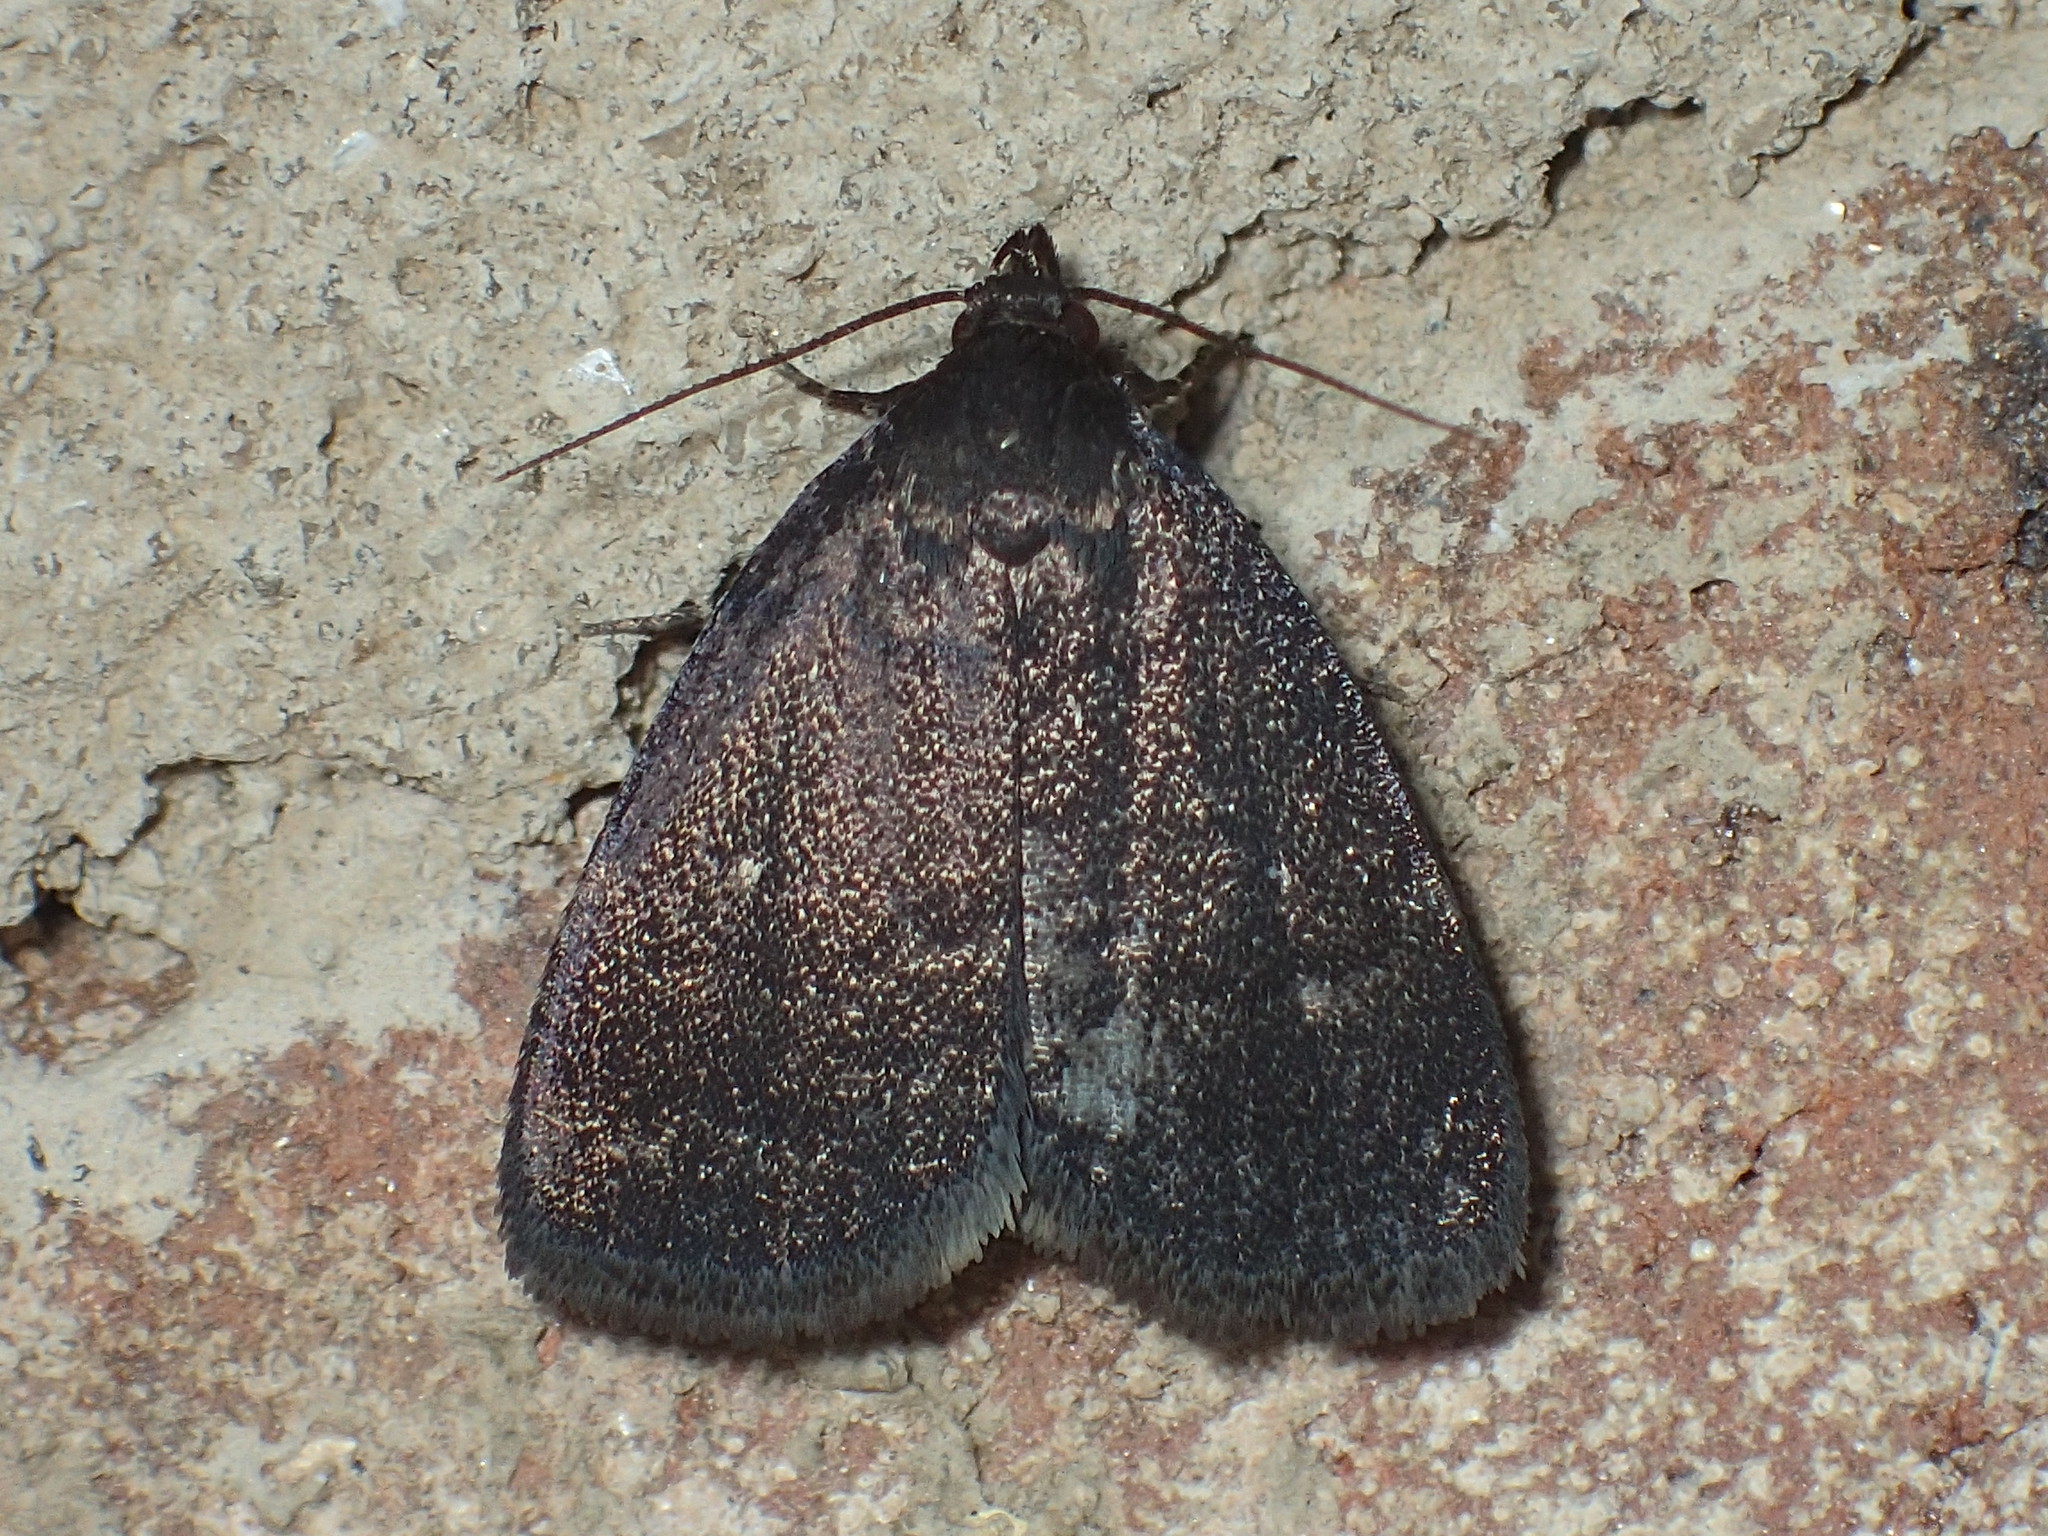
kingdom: Animalia
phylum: Arthropoda
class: Insecta
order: Lepidoptera
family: Erebidae
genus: Idia
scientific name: Idia rotundalis
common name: Rotund idia moth
